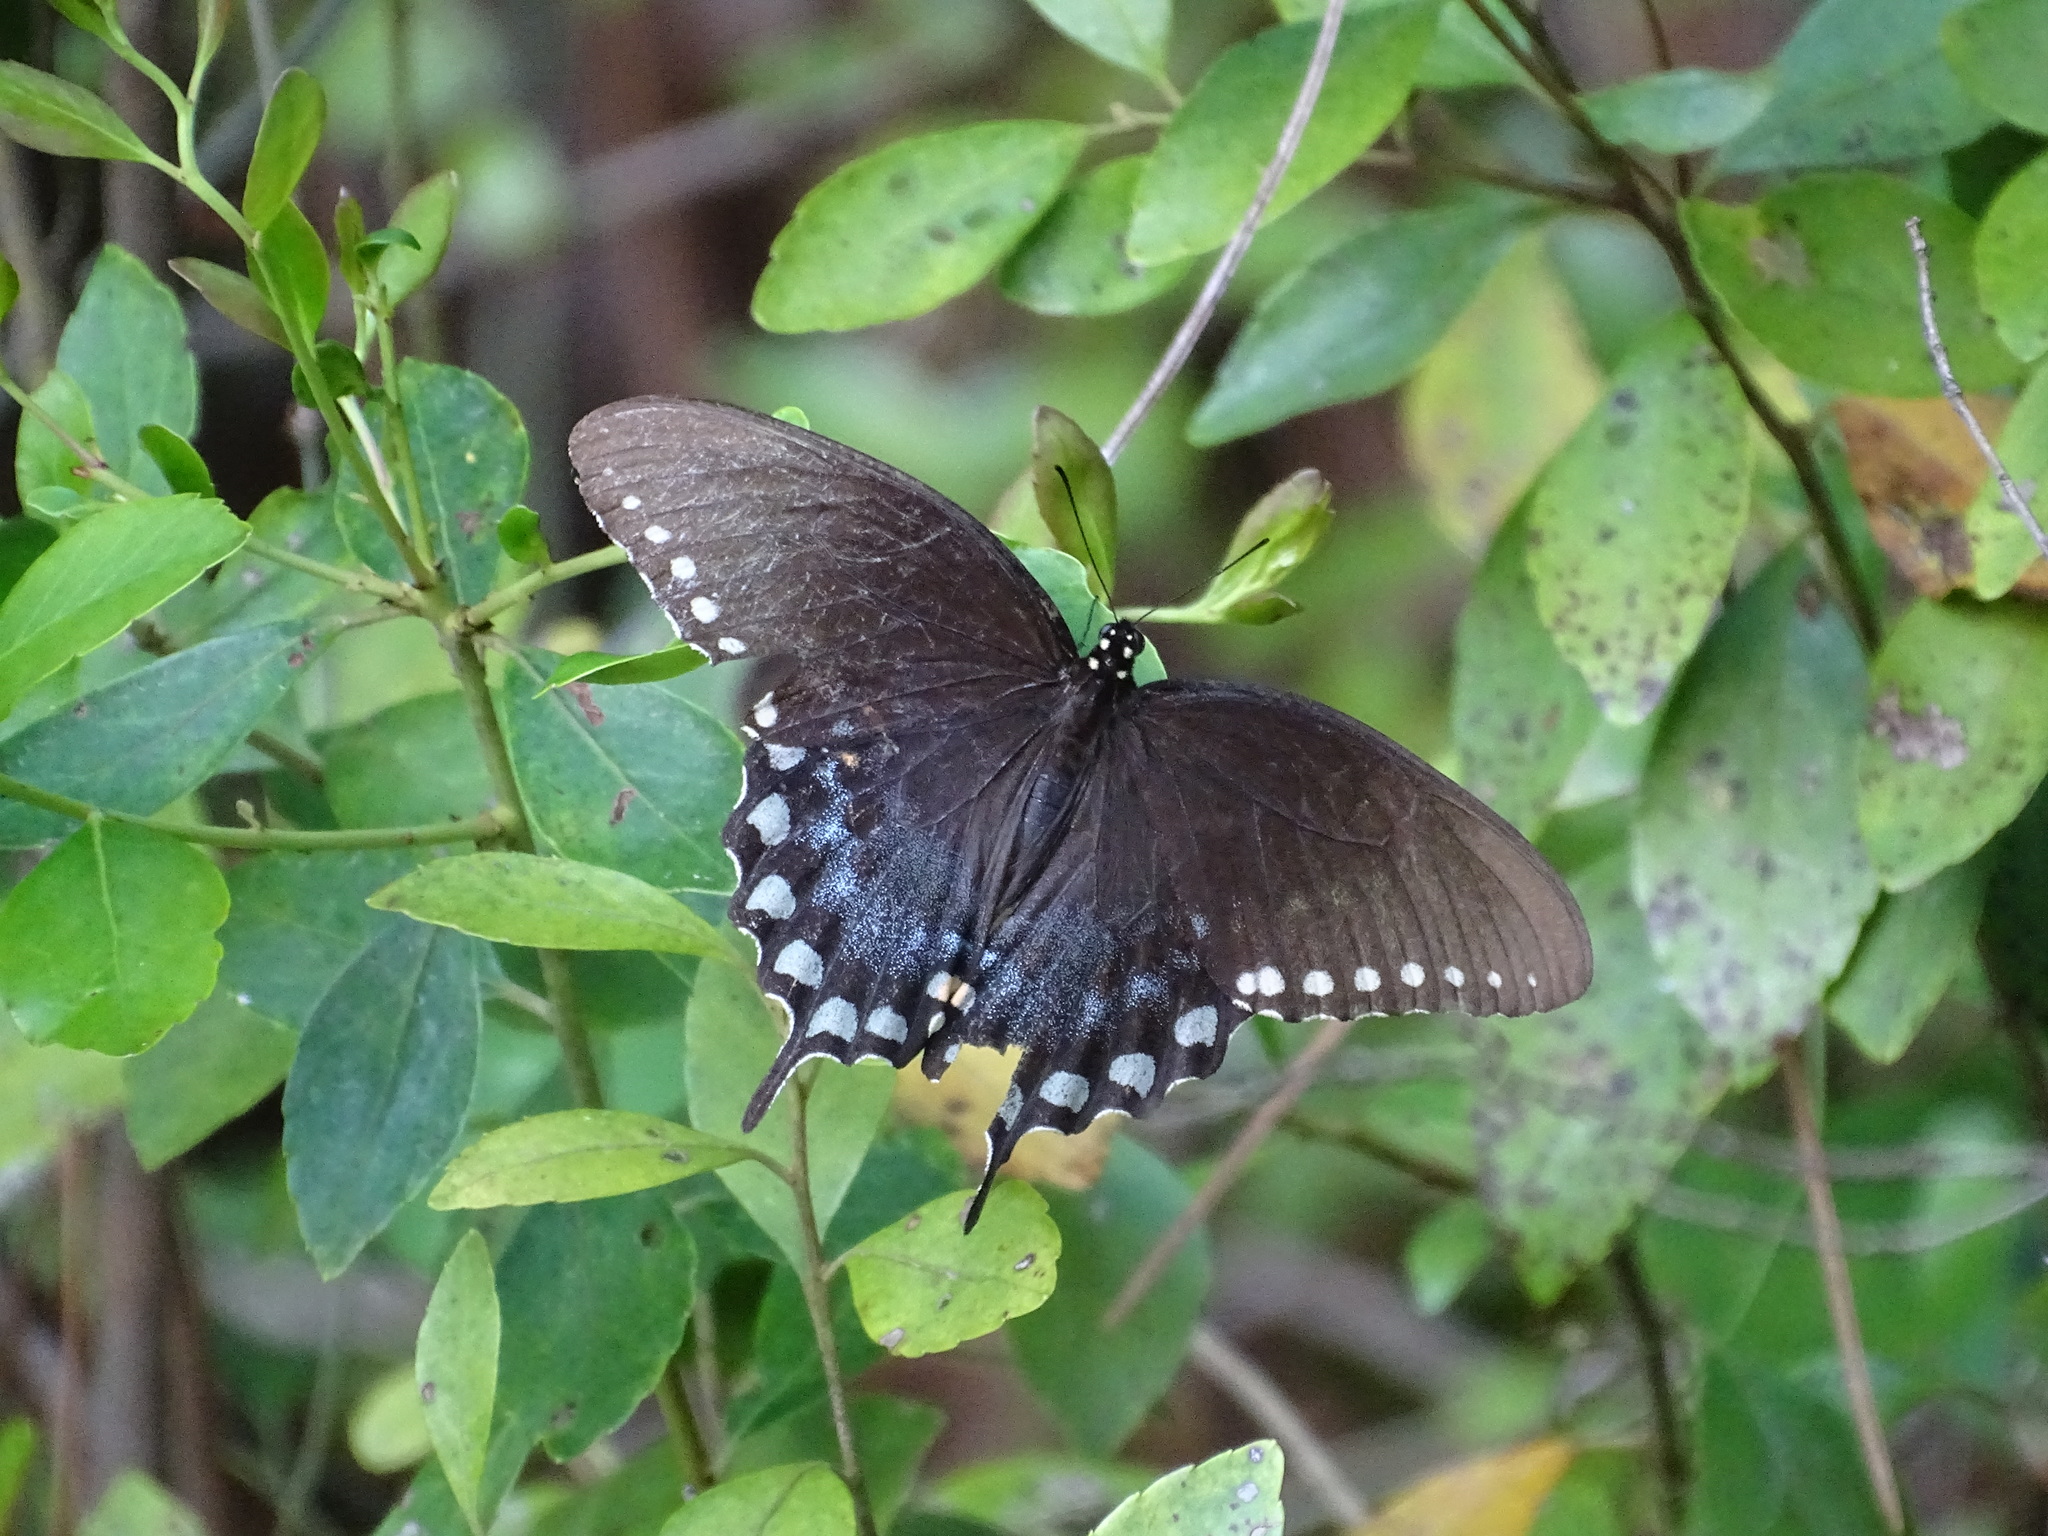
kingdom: Animalia
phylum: Arthropoda
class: Insecta
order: Lepidoptera
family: Papilionidae
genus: Papilio
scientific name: Papilio troilus
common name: Spicebush swallowtail
